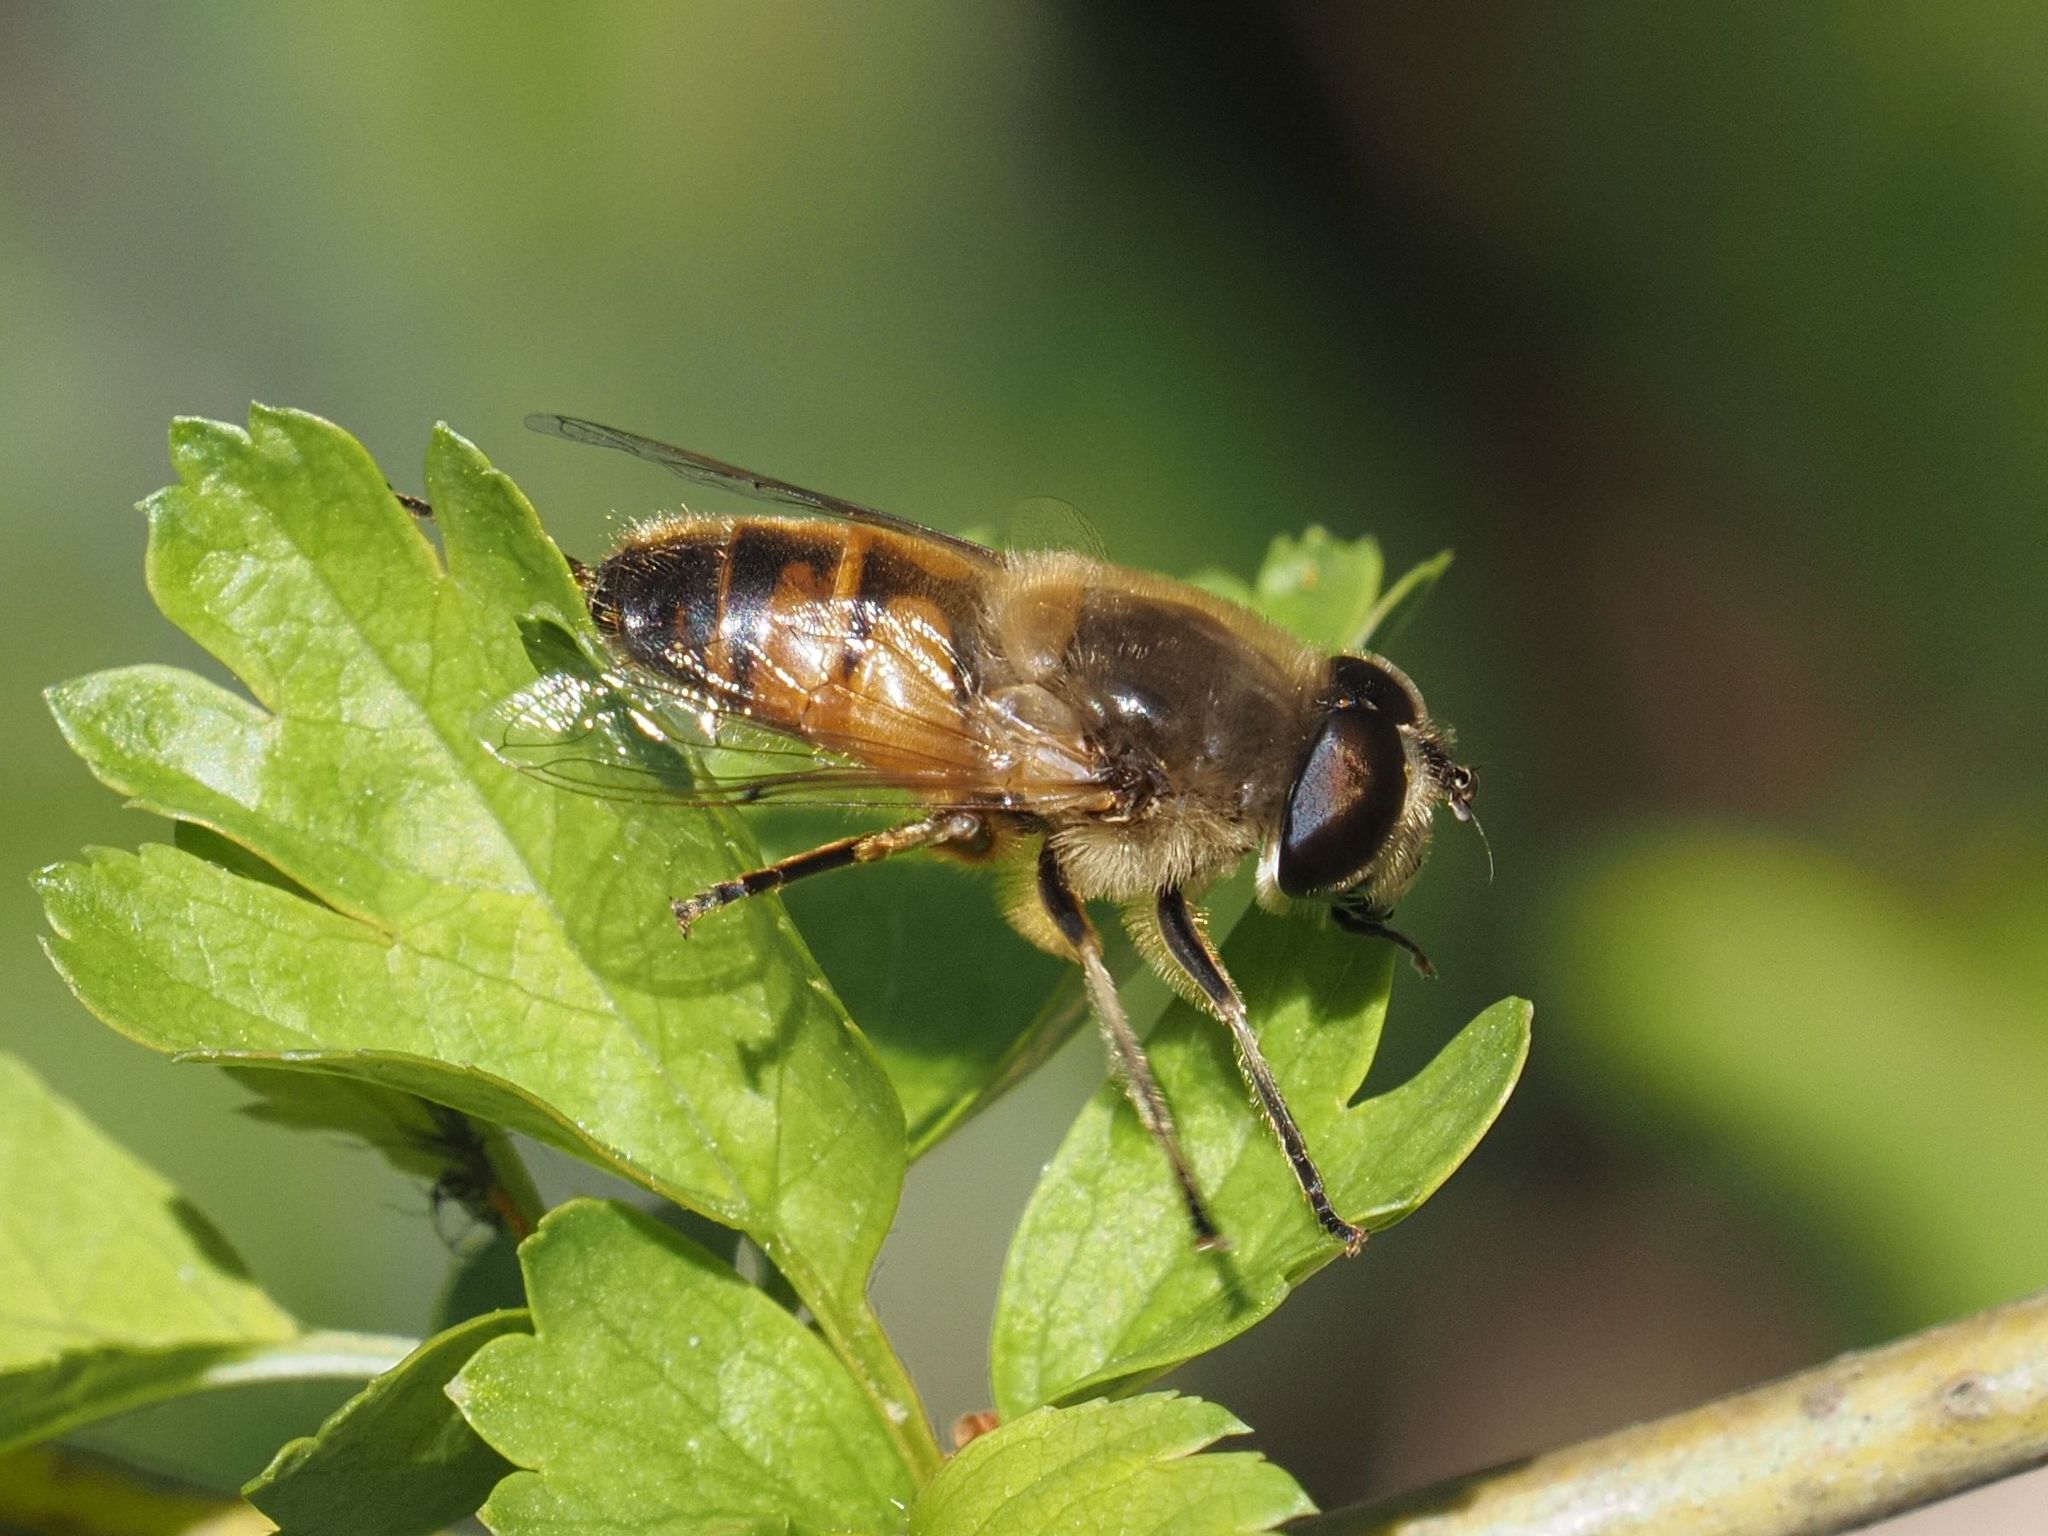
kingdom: Animalia
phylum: Arthropoda
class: Insecta
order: Diptera
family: Syrphidae
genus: Eristalis
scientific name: Eristalis tenax
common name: Drone fly
